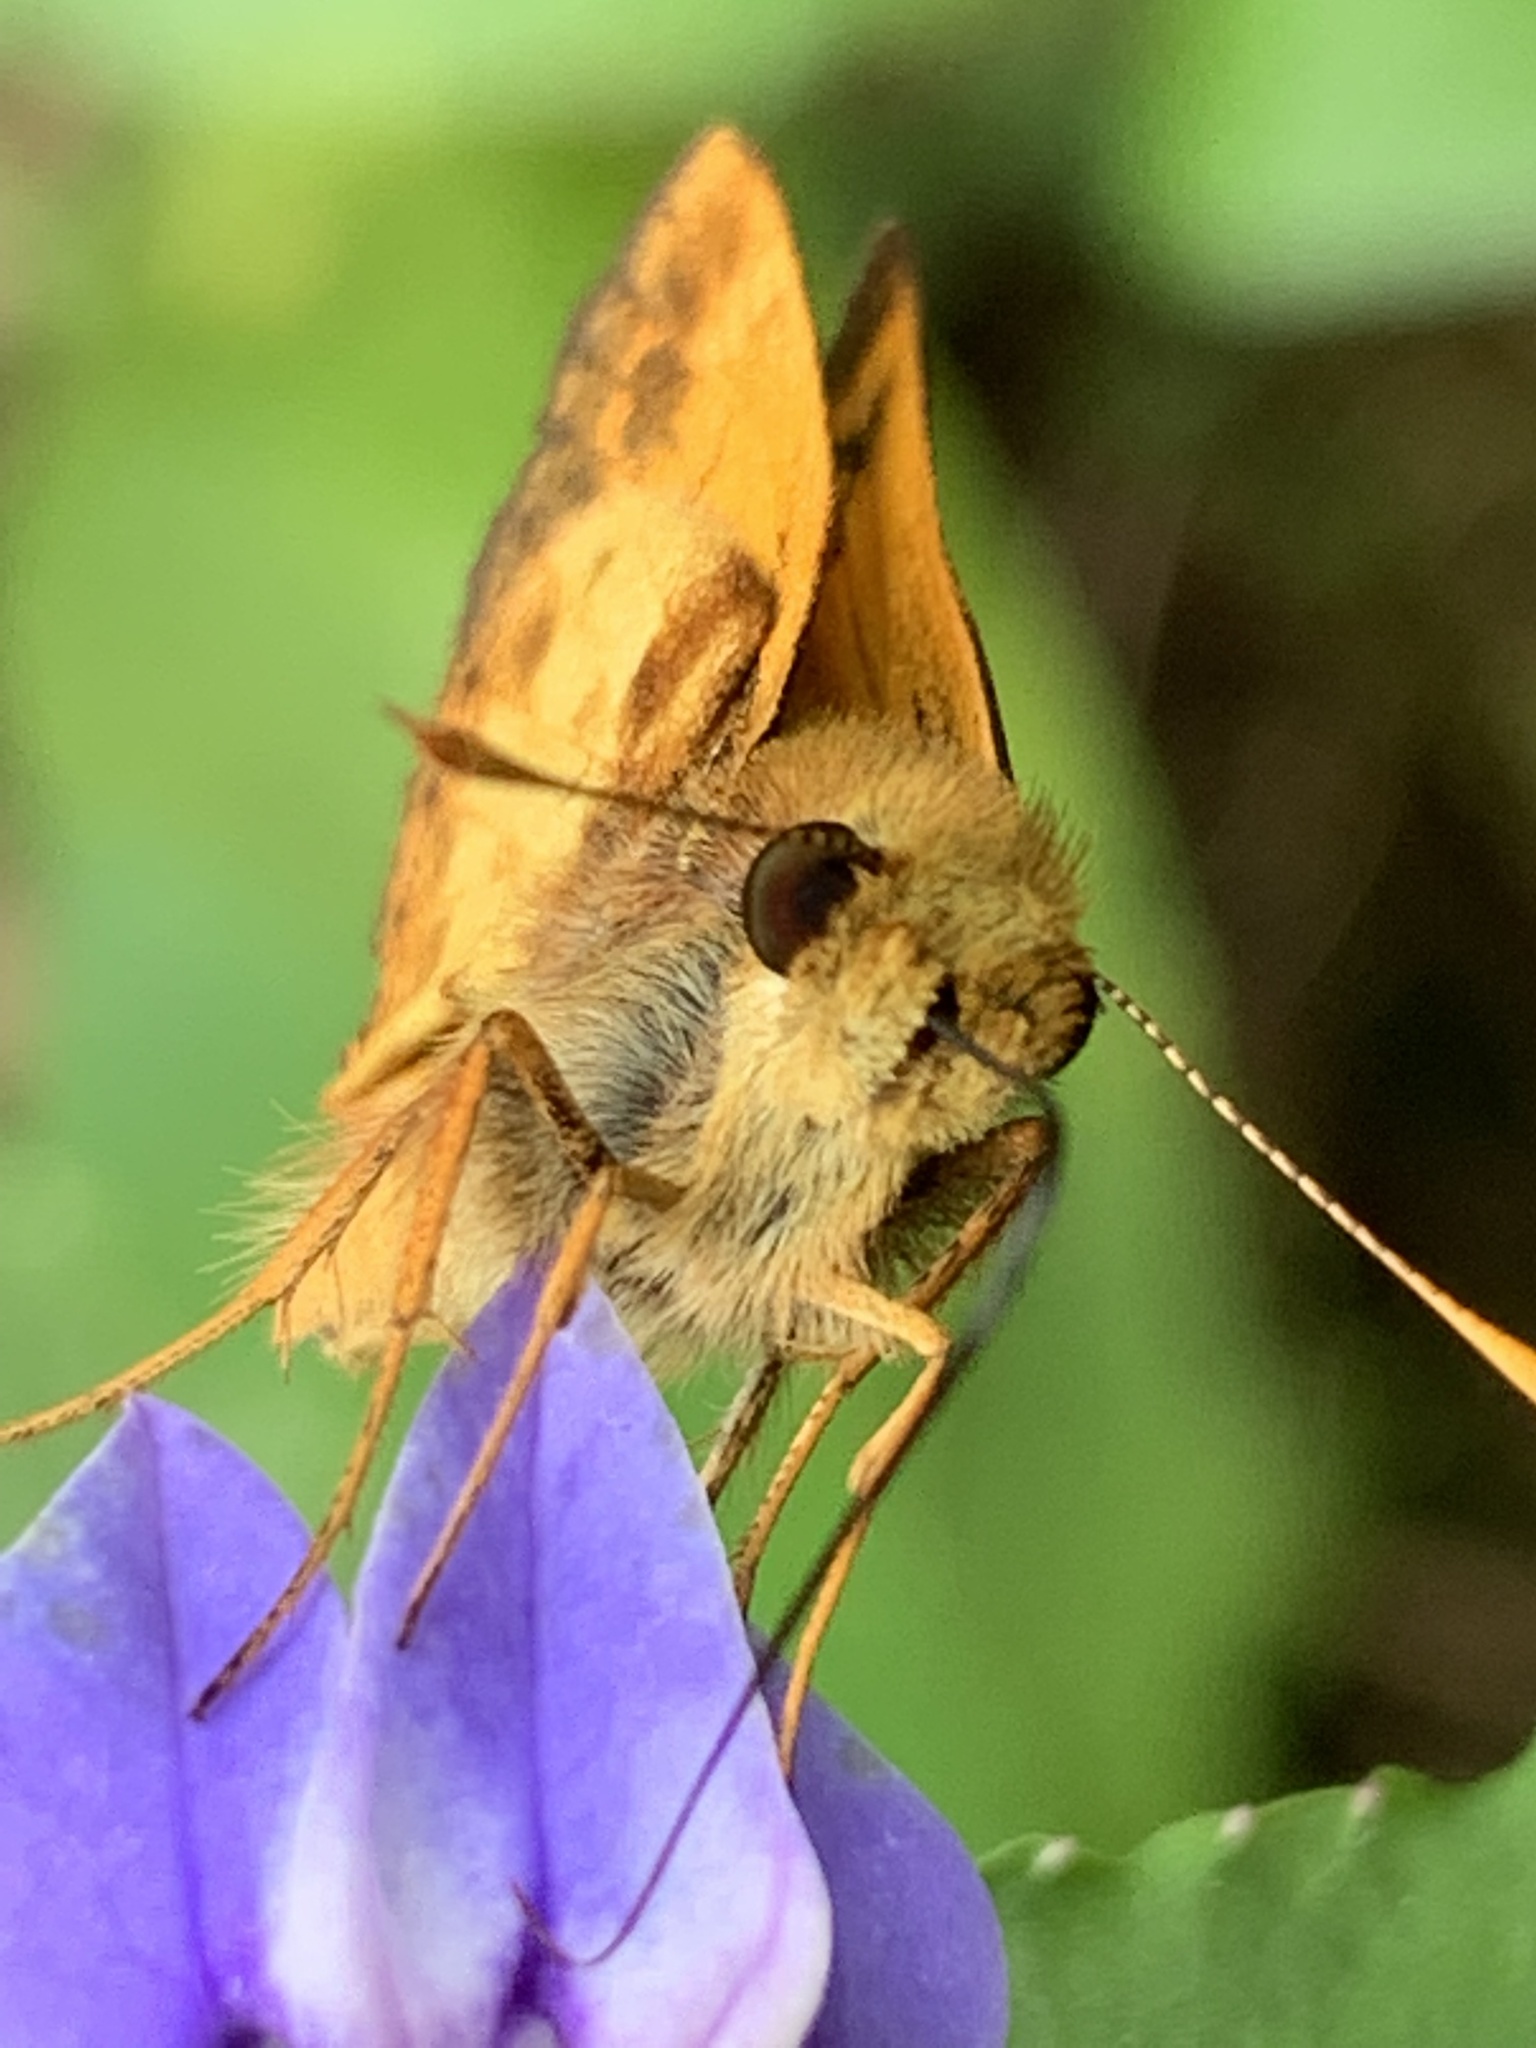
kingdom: Animalia
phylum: Arthropoda
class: Insecta
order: Lepidoptera
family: Hesperiidae
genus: Lon
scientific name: Lon zabulon
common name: Zabulon skipper
